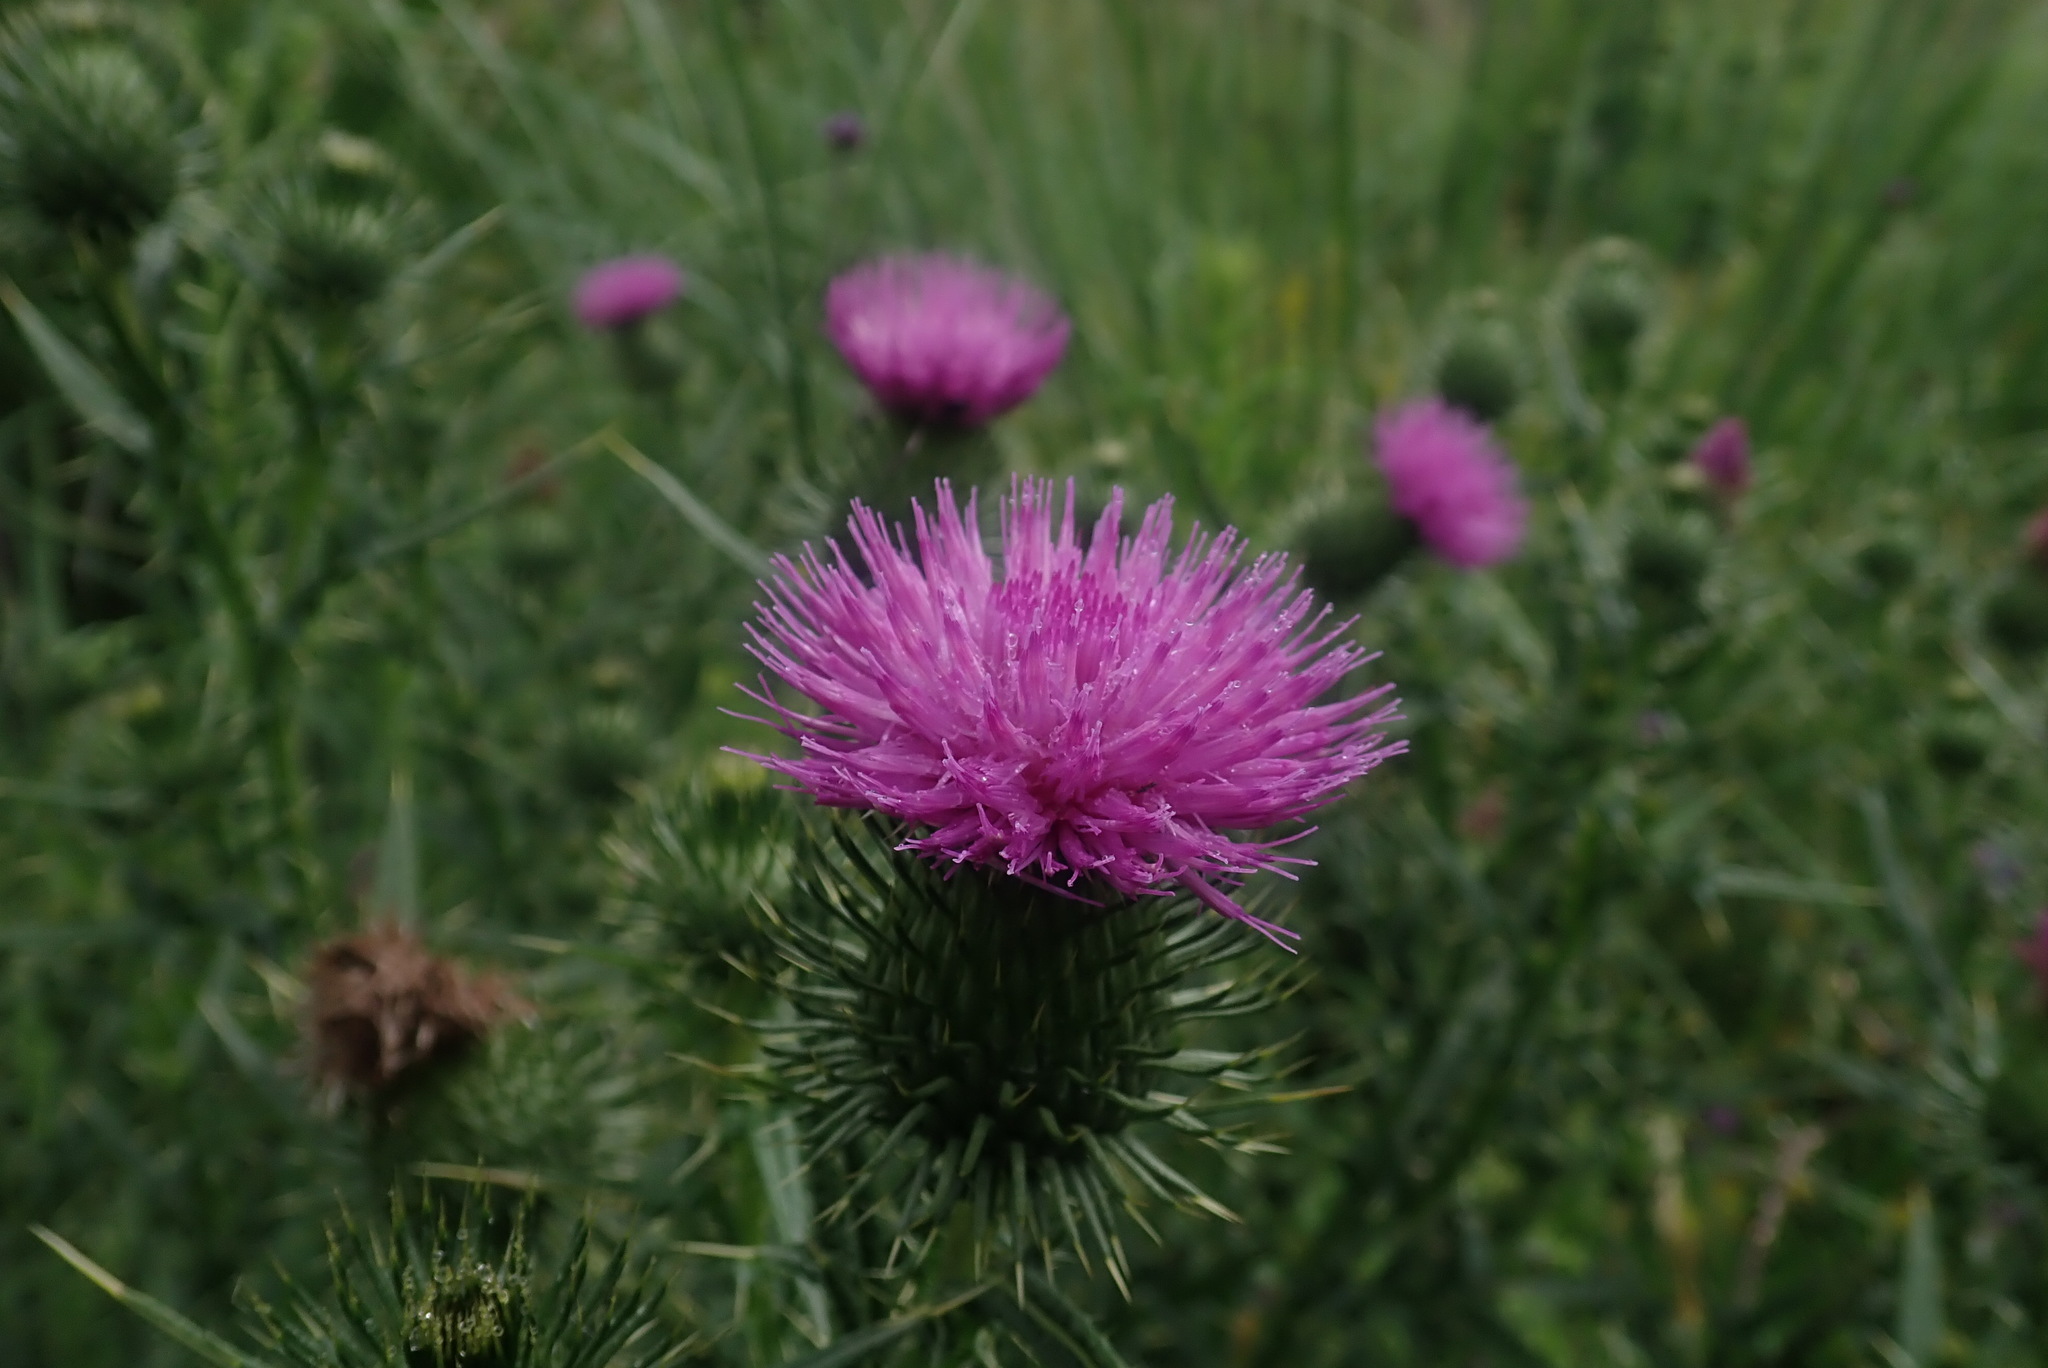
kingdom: Plantae
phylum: Tracheophyta
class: Magnoliopsida
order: Asterales
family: Asteraceae
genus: Cirsium
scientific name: Cirsium vulgare
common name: Bull thistle
